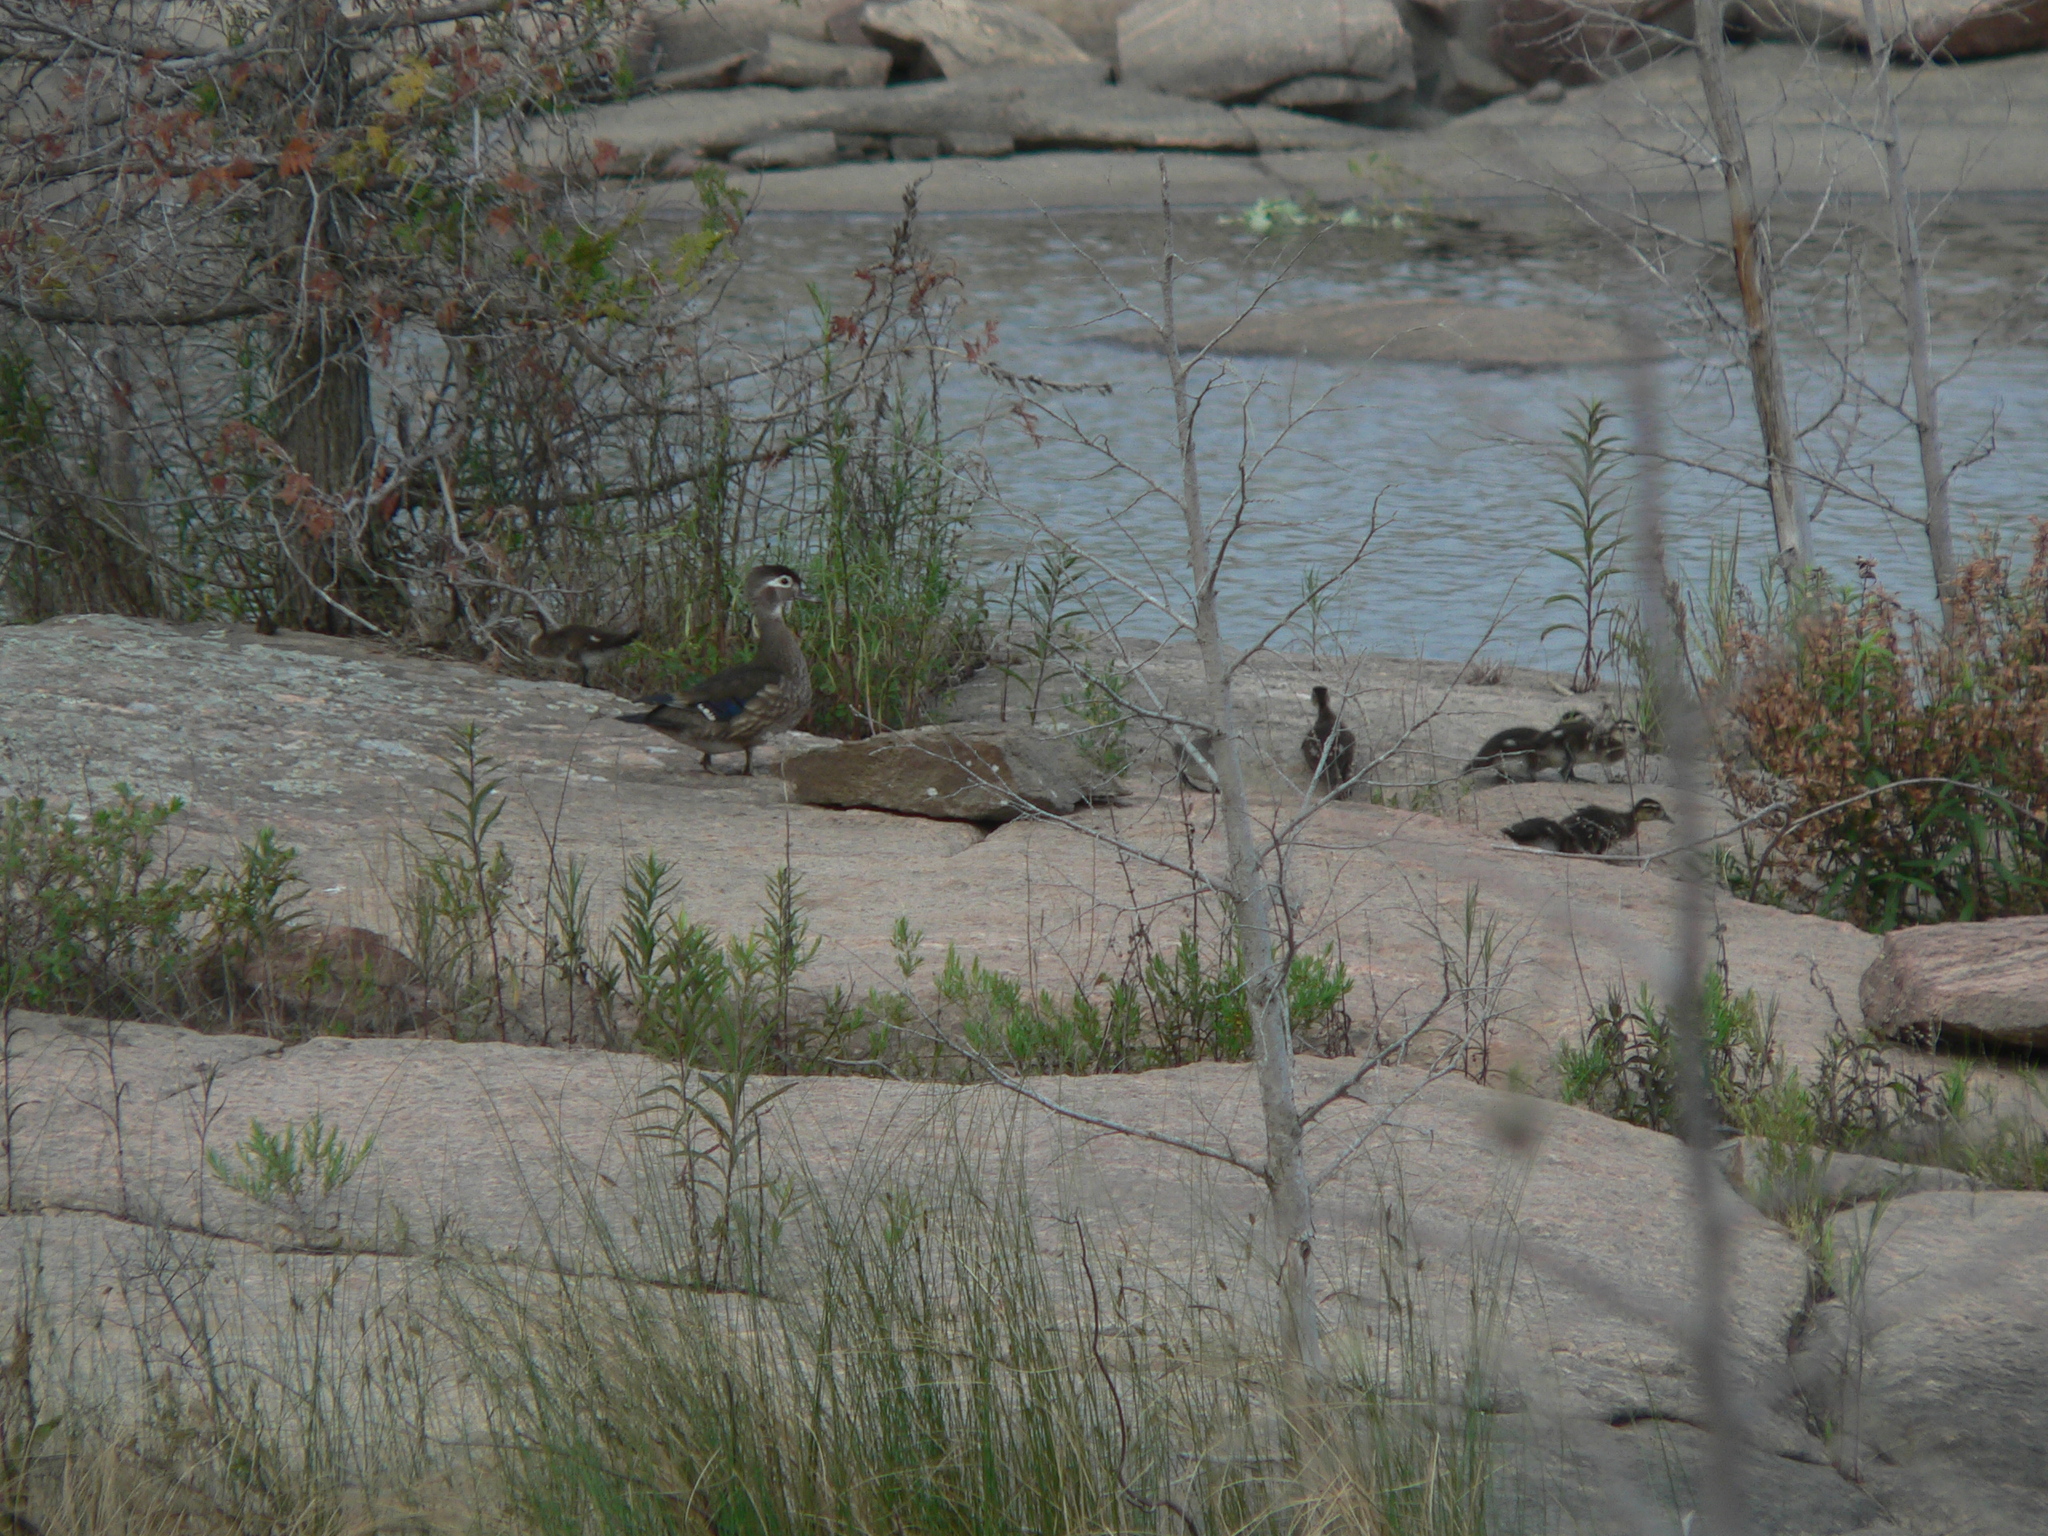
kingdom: Animalia
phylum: Chordata
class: Aves
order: Anseriformes
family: Anatidae
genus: Aix
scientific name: Aix sponsa
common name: Wood duck
